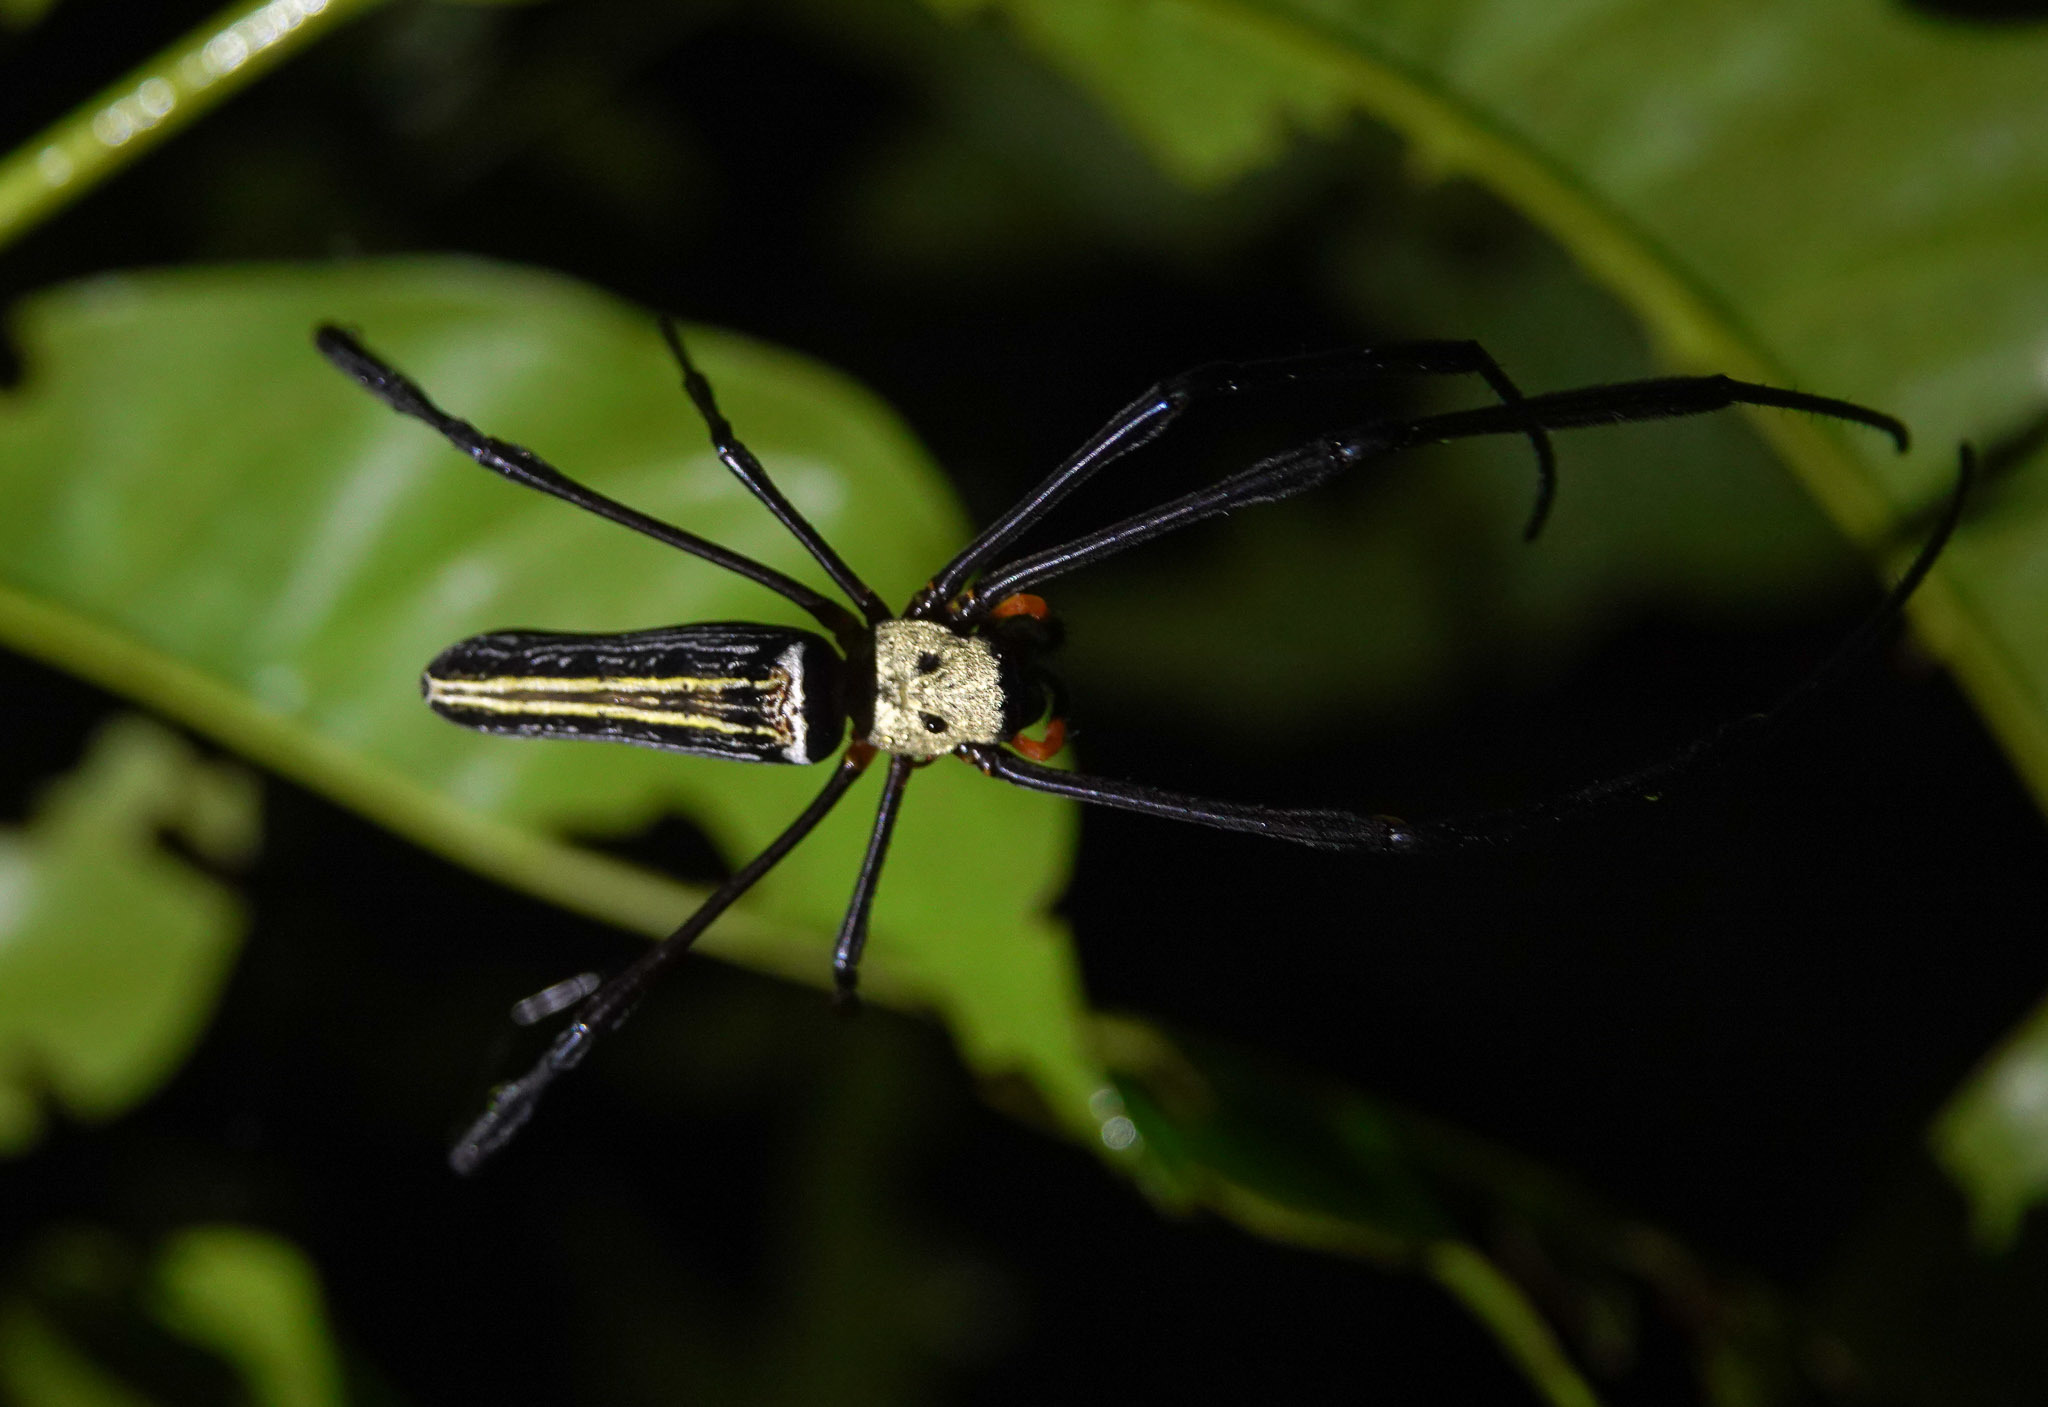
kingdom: Animalia
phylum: Arthropoda
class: Arachnida
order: Araneae
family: Araneidae
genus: Nephila
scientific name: Nephila pilipes
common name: Giant golden orb weaver
